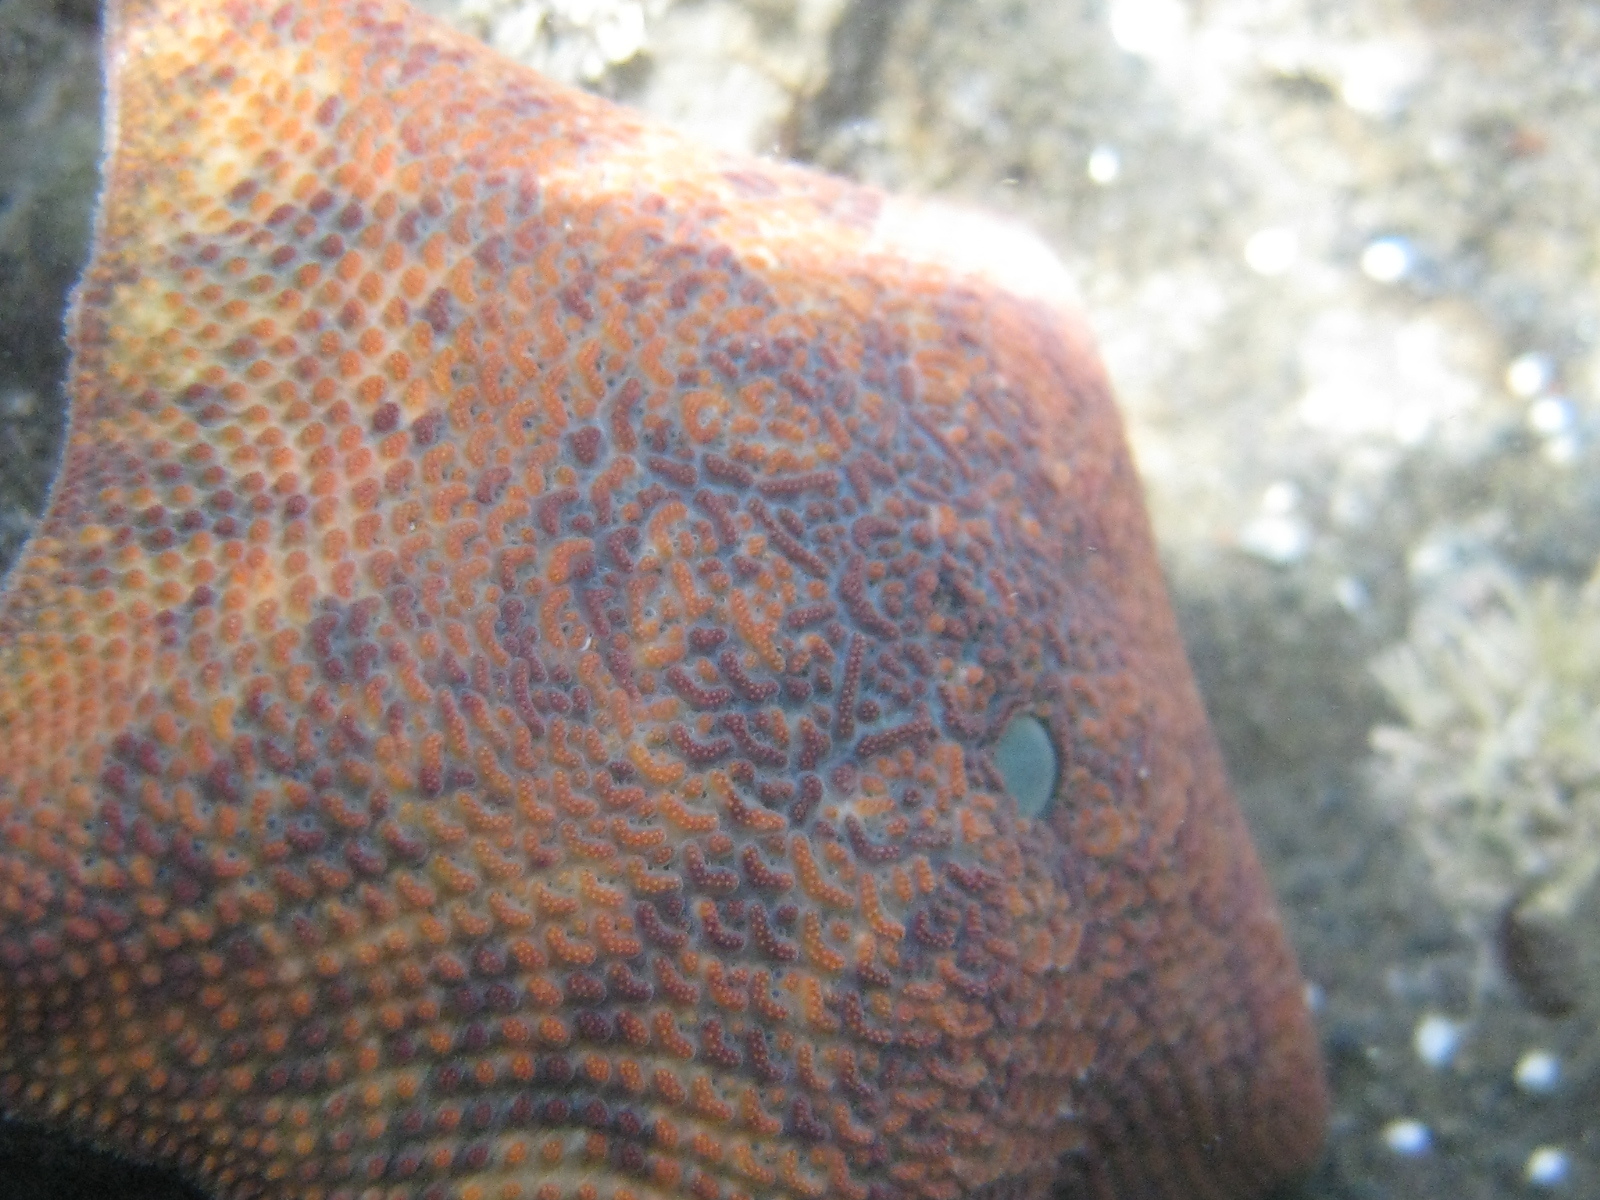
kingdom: Animalia
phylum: Echinodermata
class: Asteroidea
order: Valvatida
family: Asterinidae
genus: Patiriella
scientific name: Patiriella regularis
